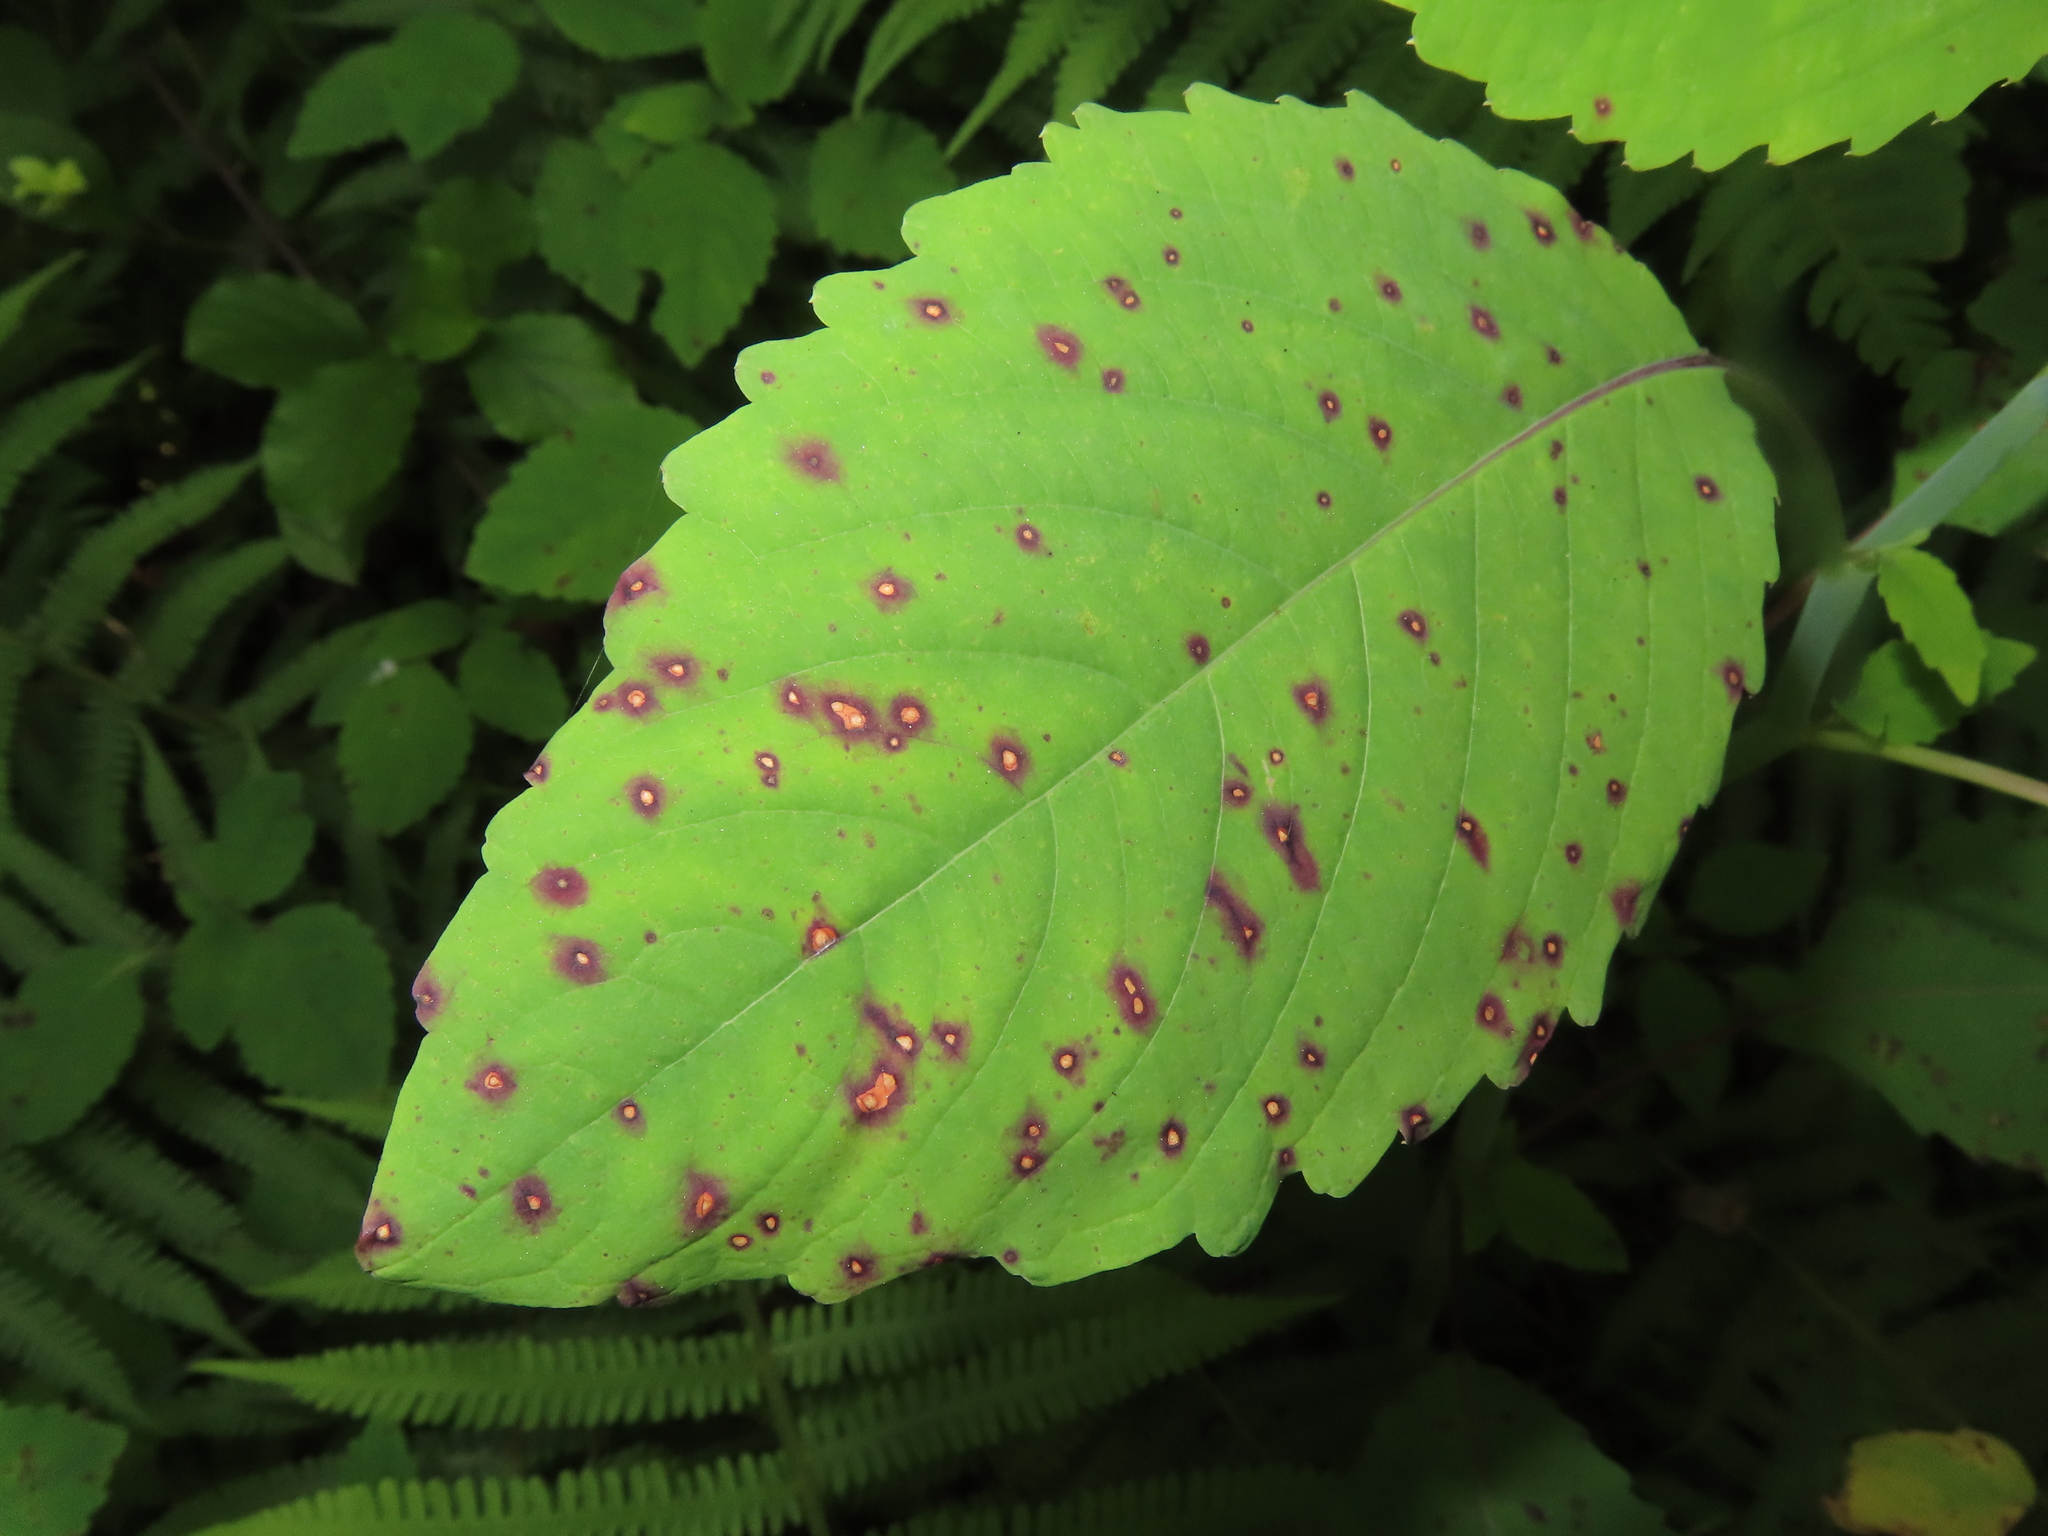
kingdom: Fungi
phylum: Ascomycota
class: Dothideomycetes
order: Mycosphaerellales
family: Mycosphaerellaceae
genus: Mycosphaerella
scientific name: Mycosphaerella impatientis
